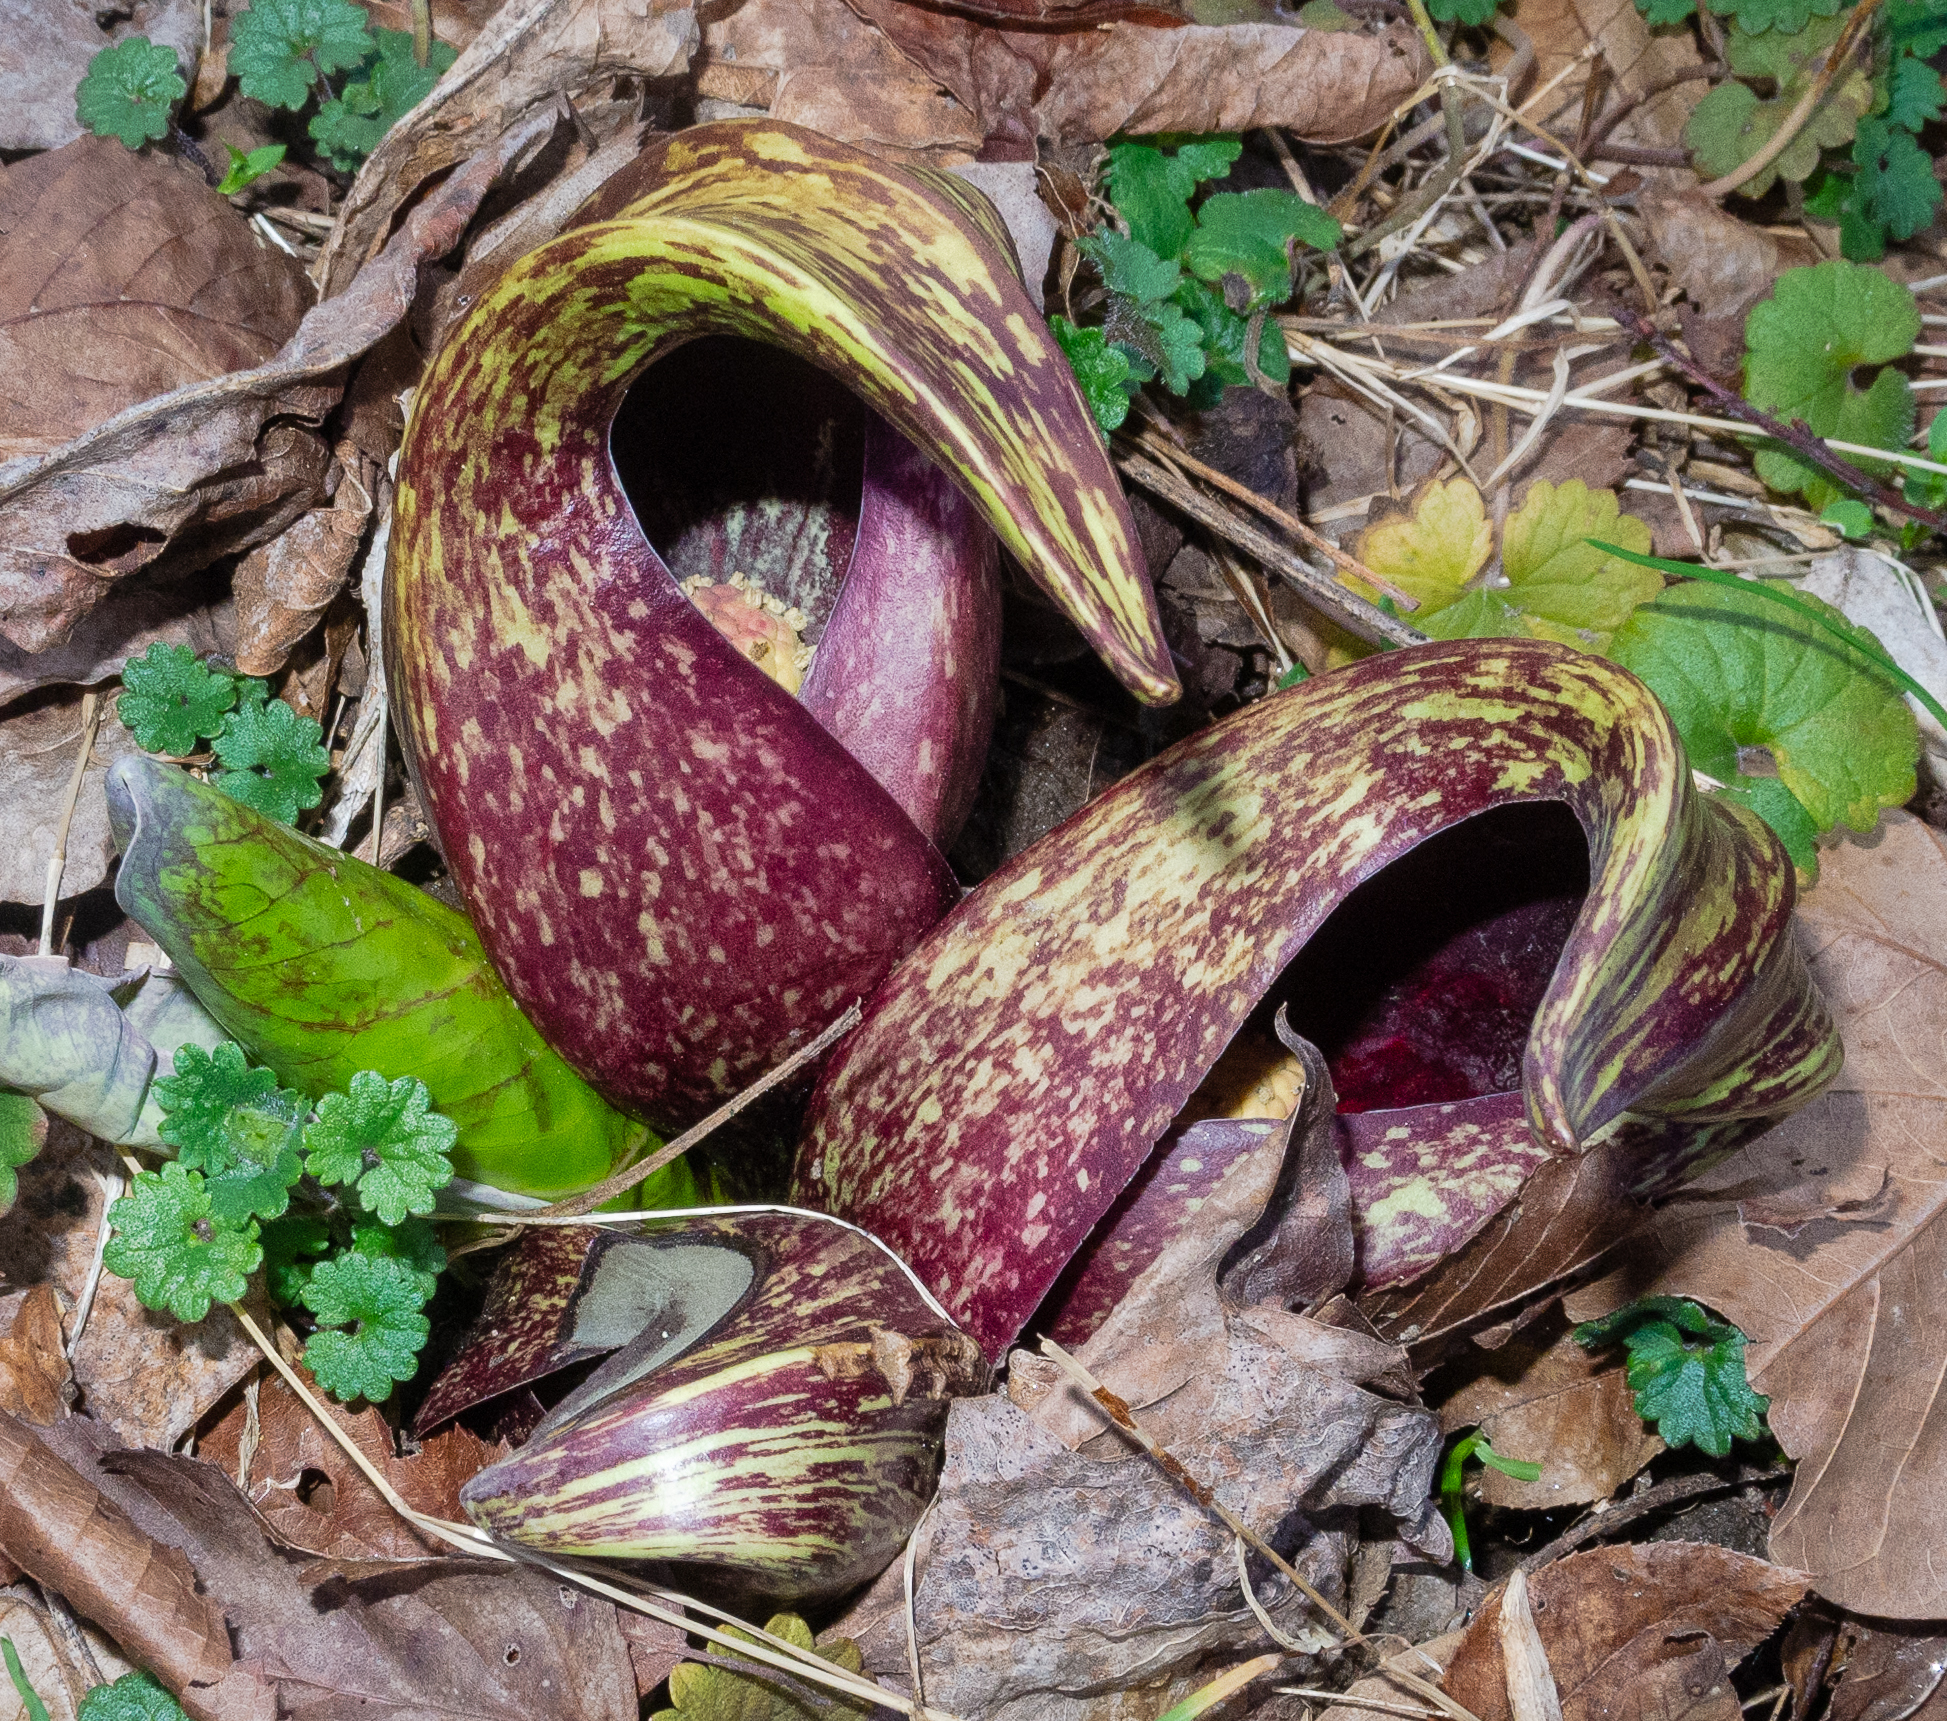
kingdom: Plantae
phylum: Tracheophyta
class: Liliopsida
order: Alismatales
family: Araceae
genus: Symplocarpus
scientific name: Symplocarpus foetidus
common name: Eastern skunk cabbage
